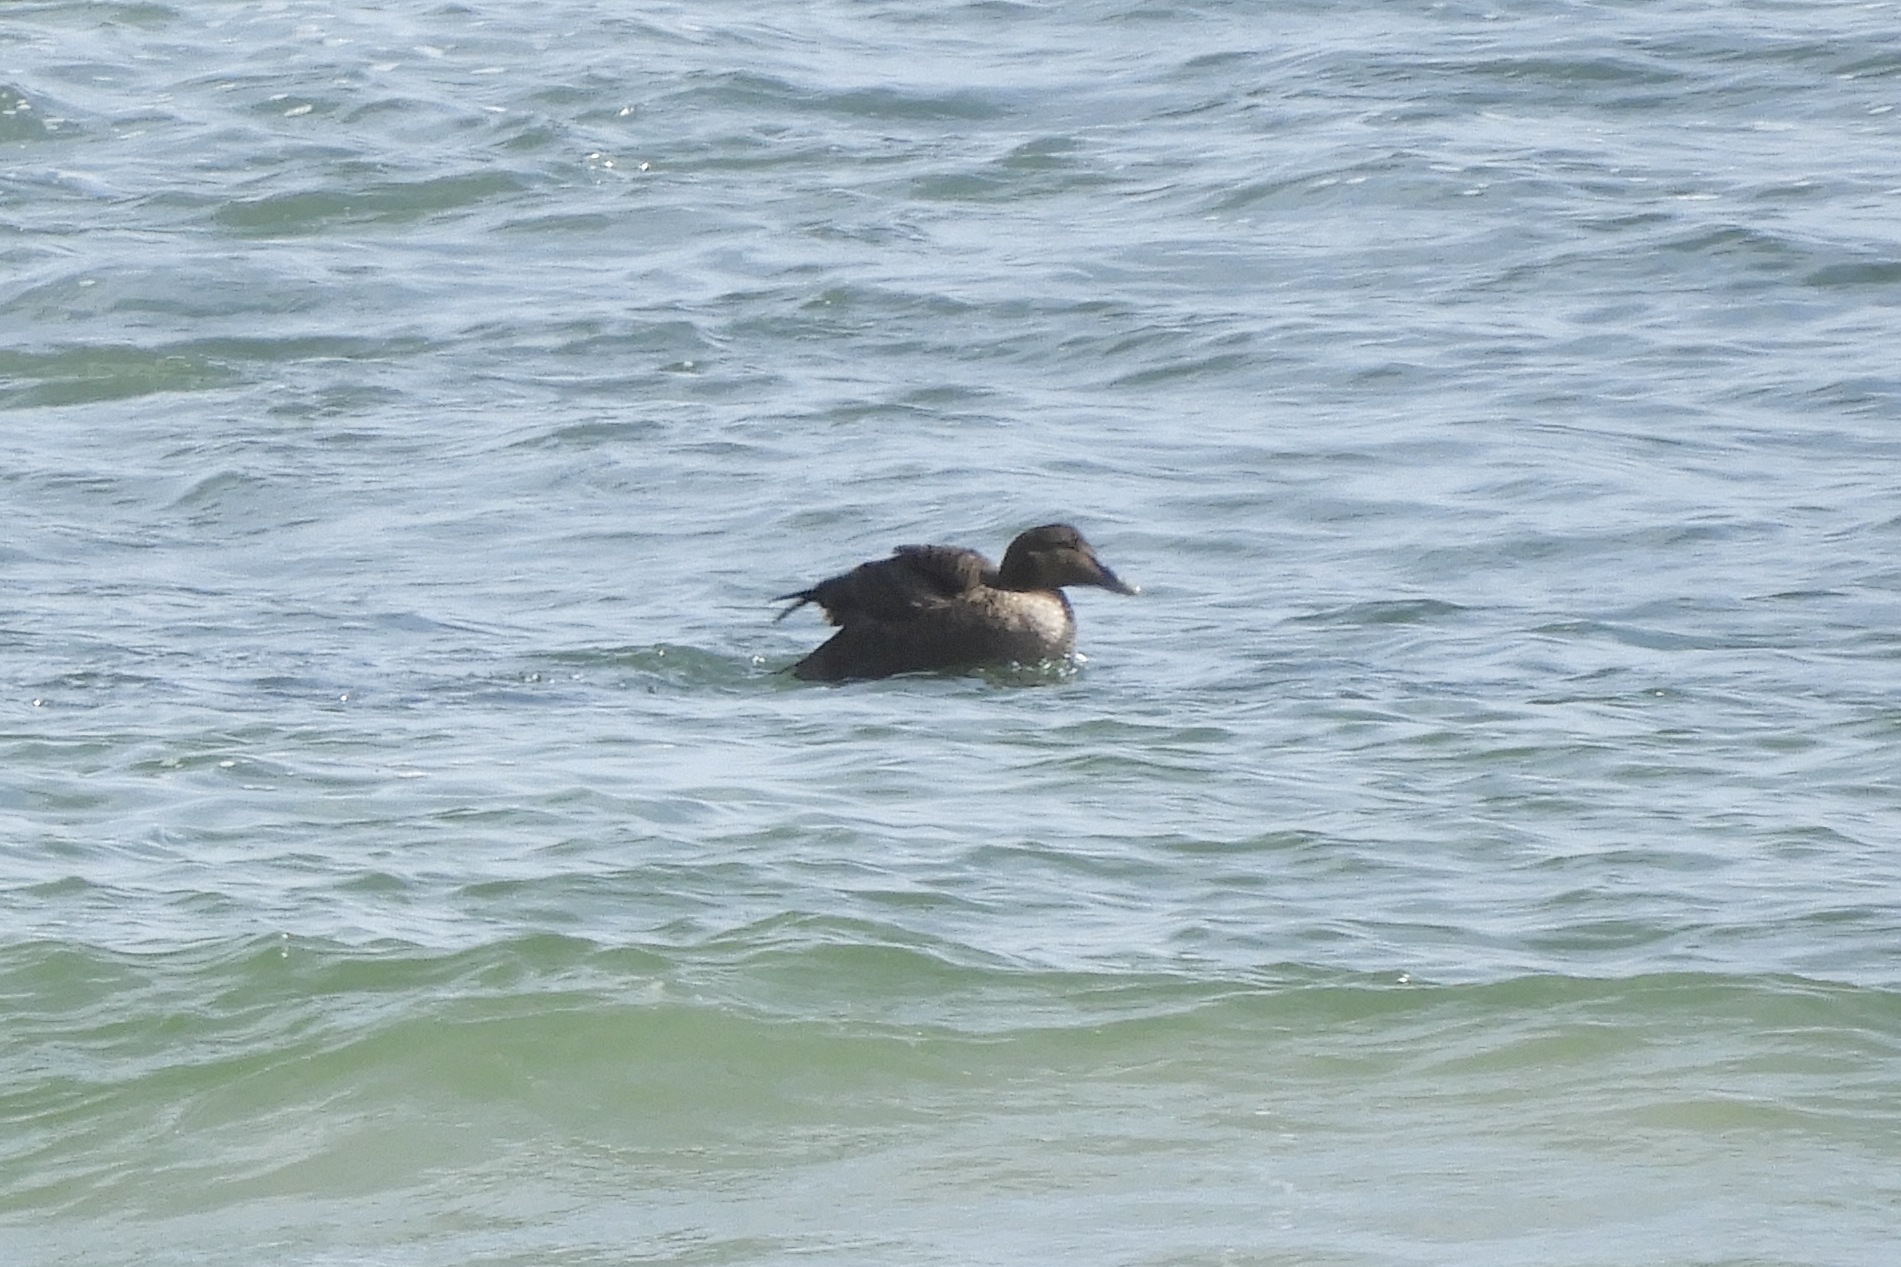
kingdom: Animalia
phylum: Chordata
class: Aves
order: Anseriformes
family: Anatidae
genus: Somateria
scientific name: Somateria mollissima
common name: Common eider
